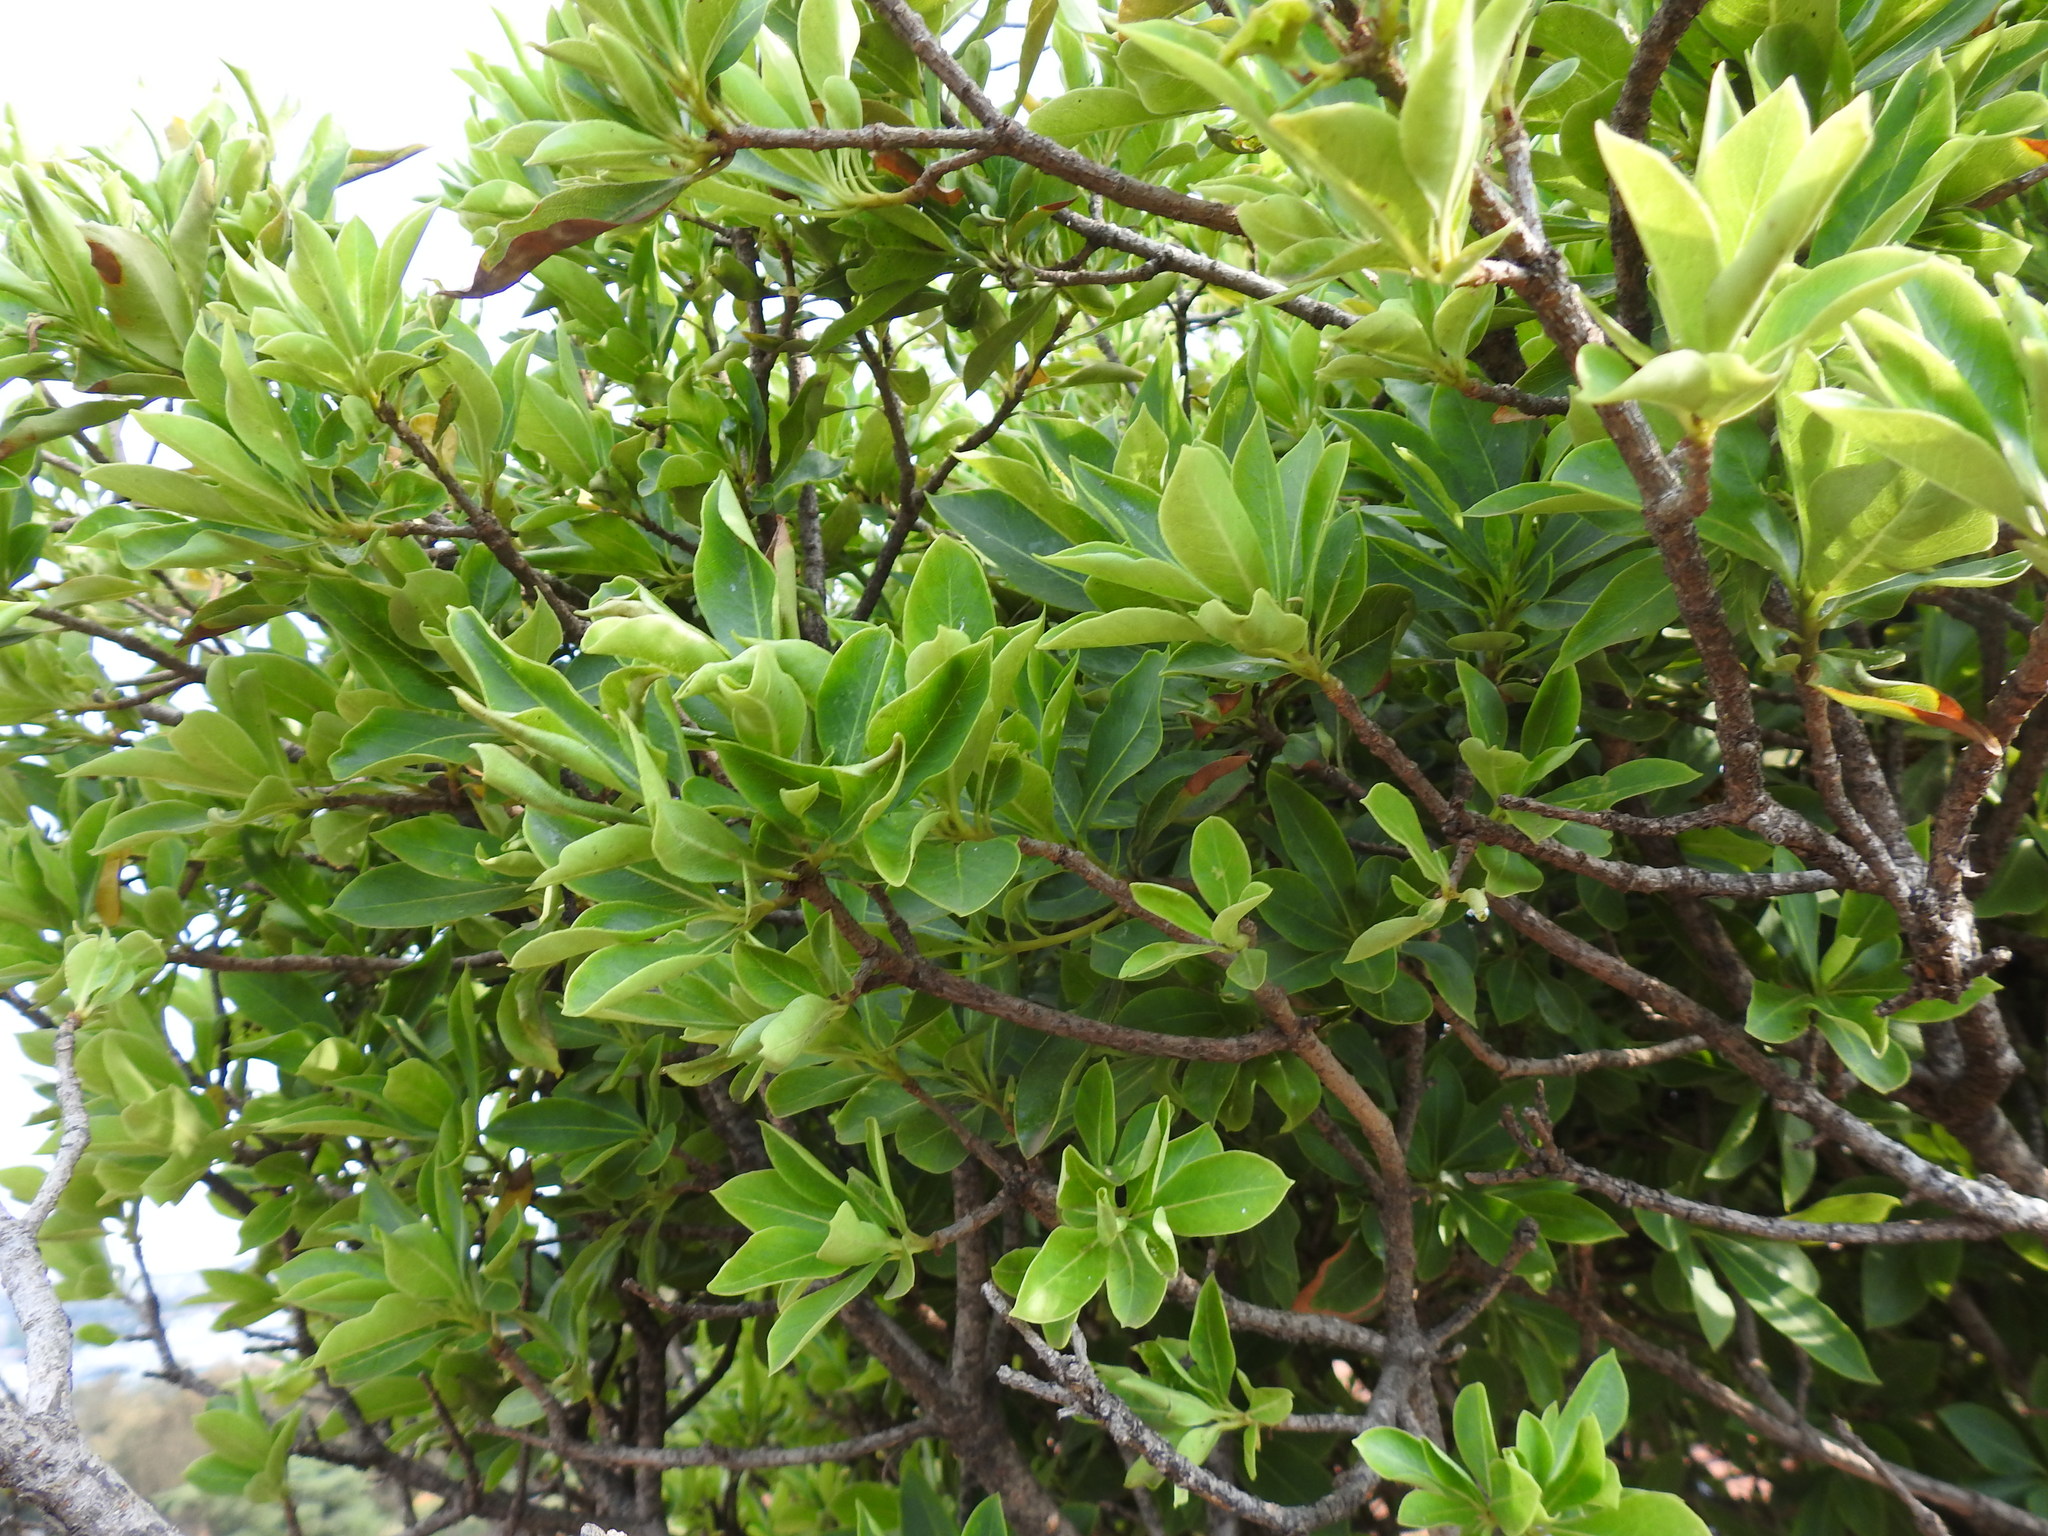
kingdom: Plantae
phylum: Tracheophyta
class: Magnoliopsida
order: Gentianales
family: Loganiaceae
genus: Strychnos
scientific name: Strychnos pungens
